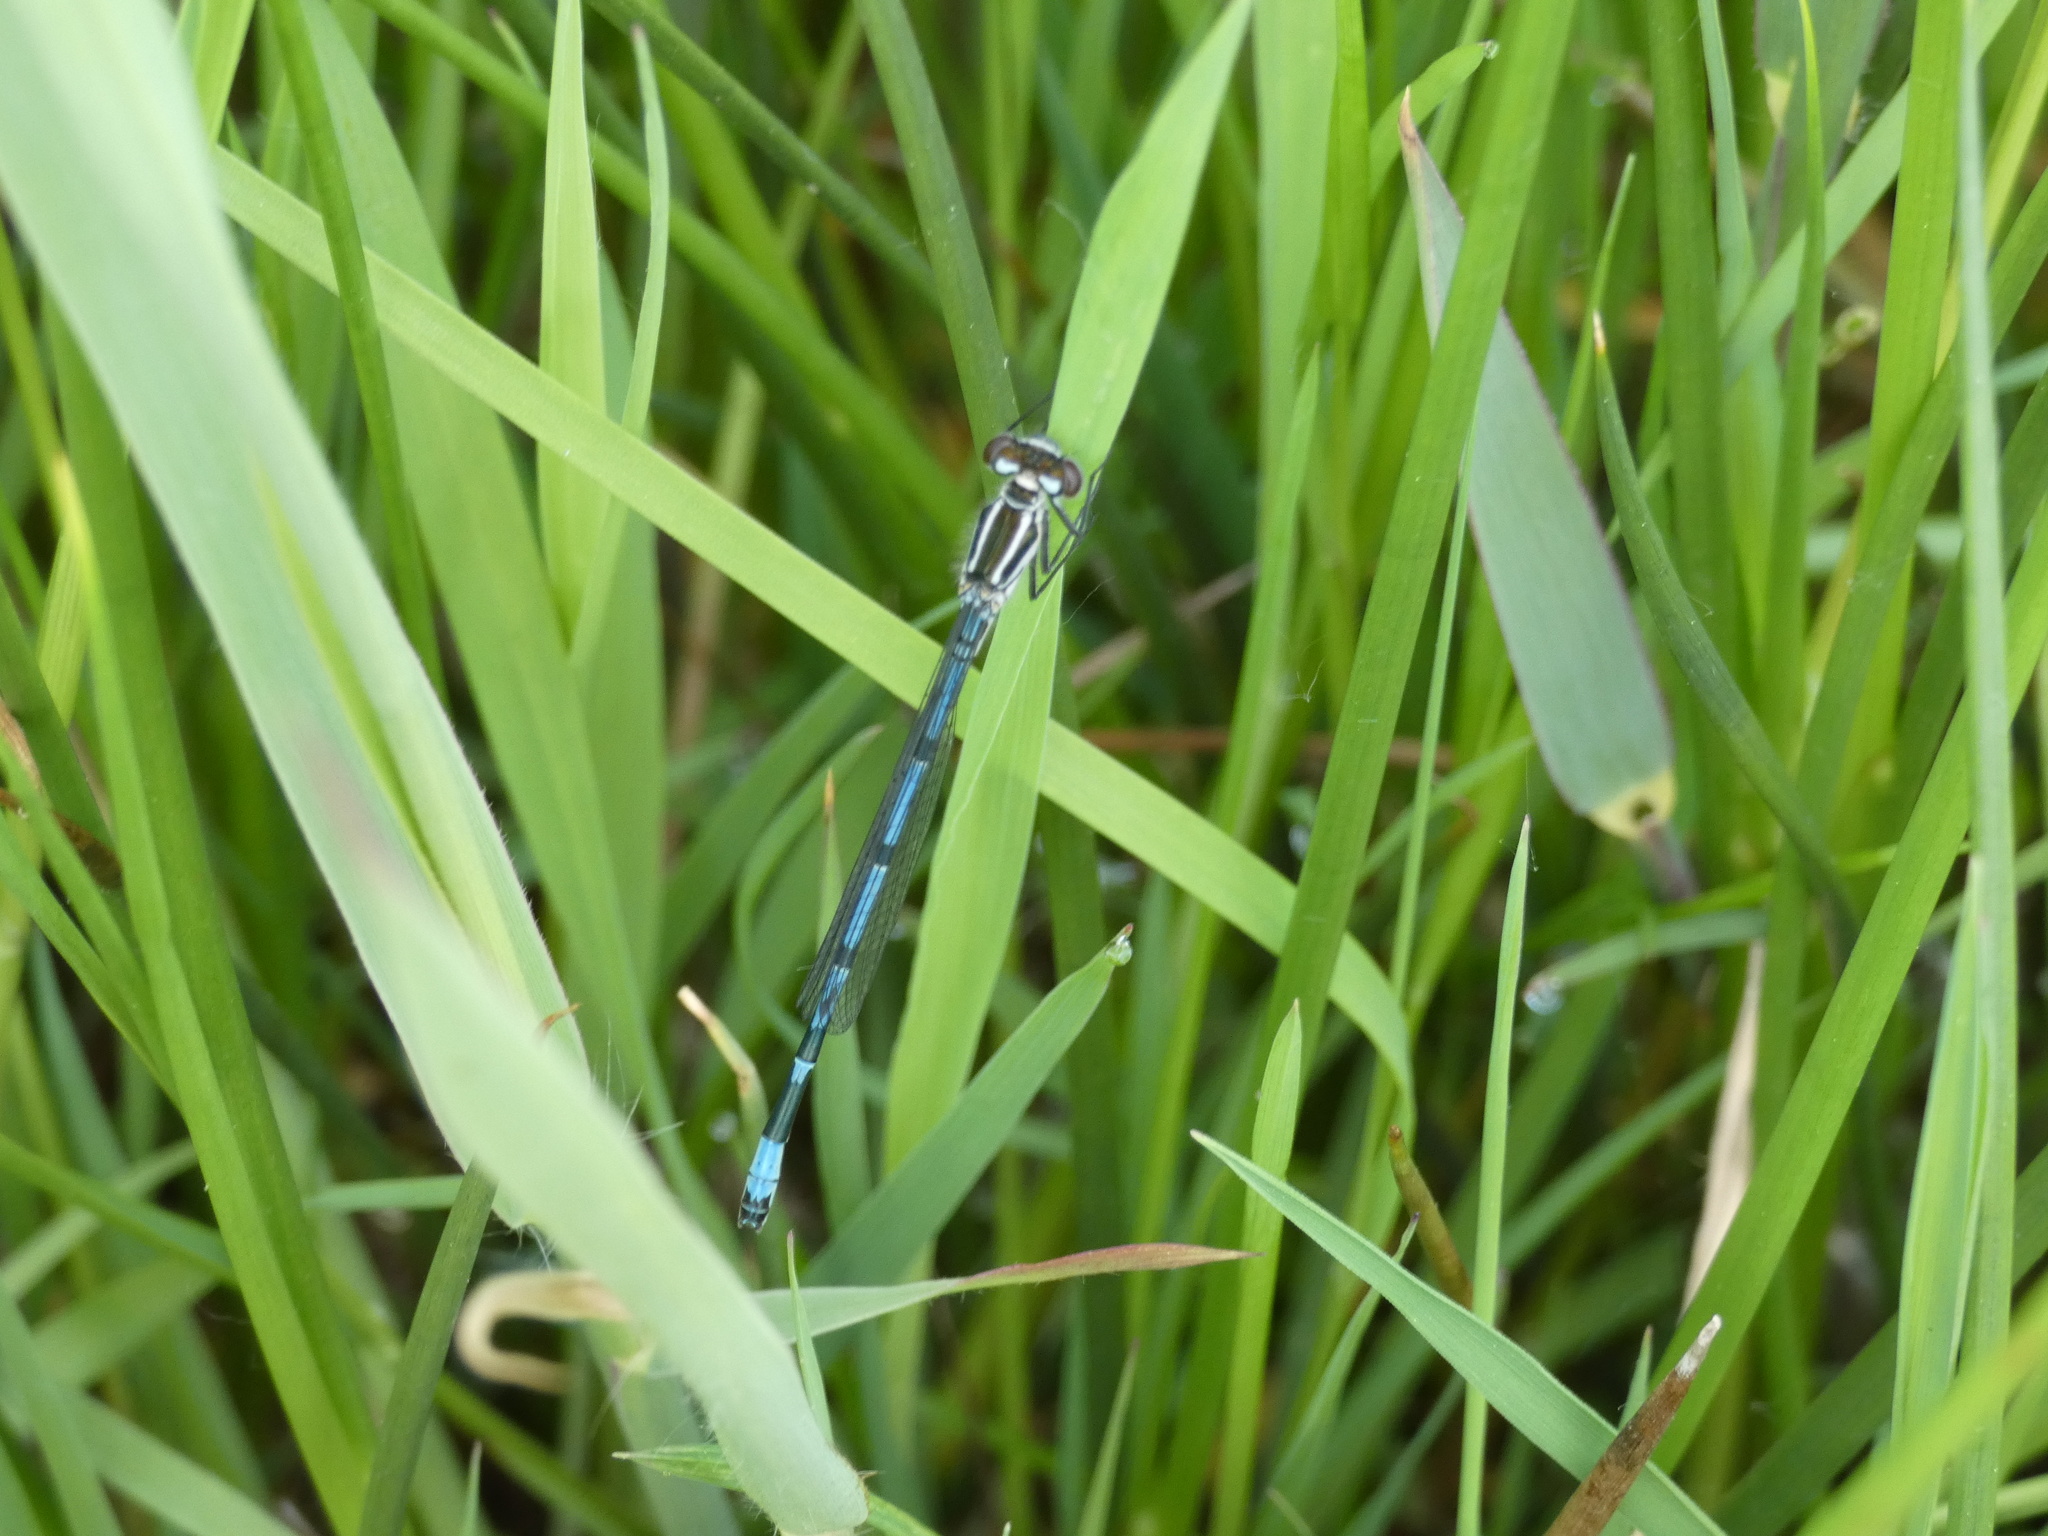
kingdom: Animalia
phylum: Arthropoda
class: Insecta
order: Odonata
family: Coenagrionidae
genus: Coenagrion
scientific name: Coenagrion puella
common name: Azure damselfly
